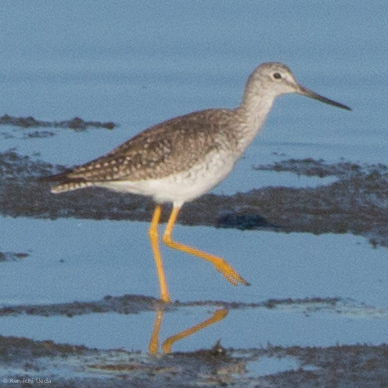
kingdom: Animalia
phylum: Chordata
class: Aves
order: Charadriiformes
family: Scolopacidae
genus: Tringa
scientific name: Tringa melanoleuca
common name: Greater yellowlegs
